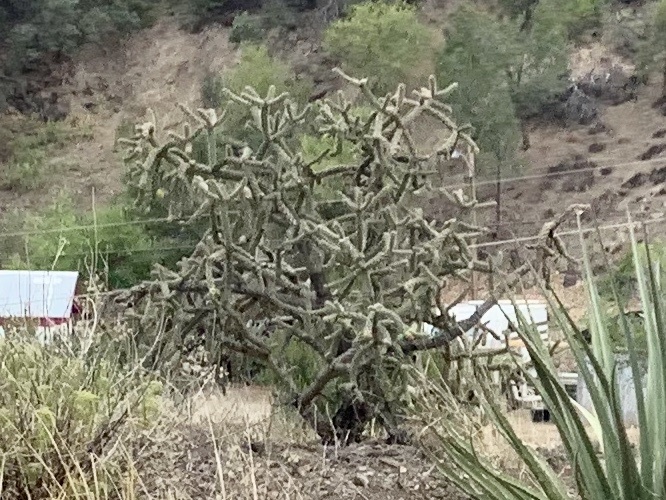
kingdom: Plantae
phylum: Tracheophyta
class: Magnoliopsida
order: Caryophyllales
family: Cactaceae
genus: Cylindropuntia
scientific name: Cylindropuntia imbricata
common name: Candelabrum cactus
